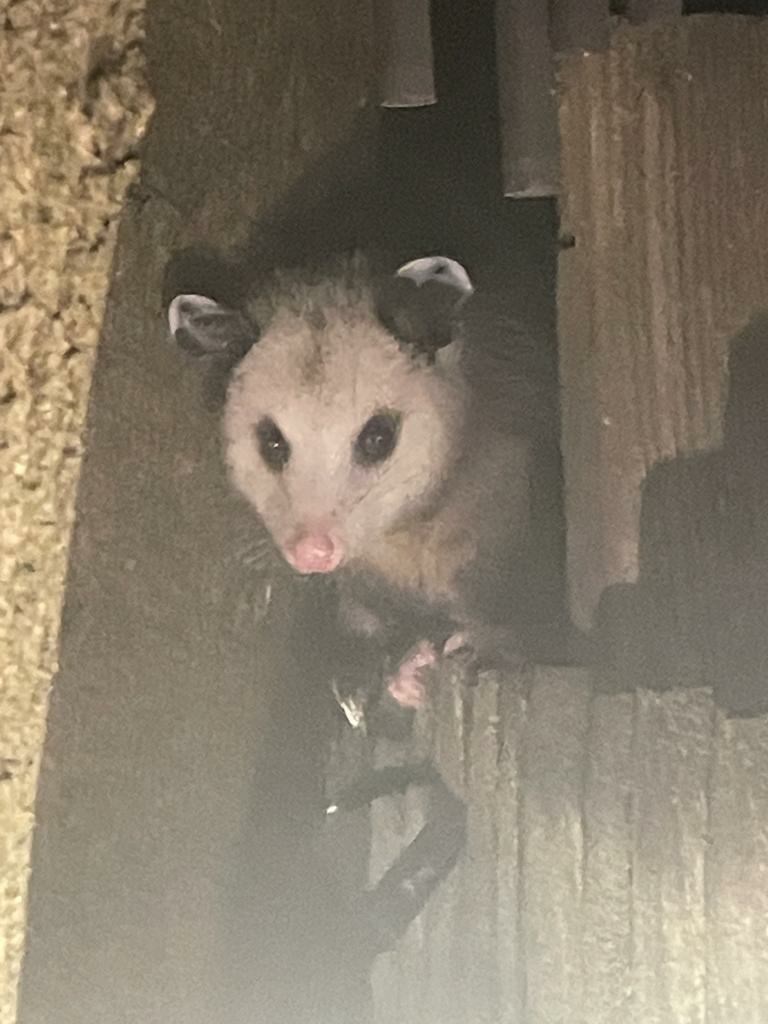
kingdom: Animalia
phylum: Chordata
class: Mammalia
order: Didelphimorphia
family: Didelphidae
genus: Didelphis
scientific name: Didelphis virginiana
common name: Virginia opossum
